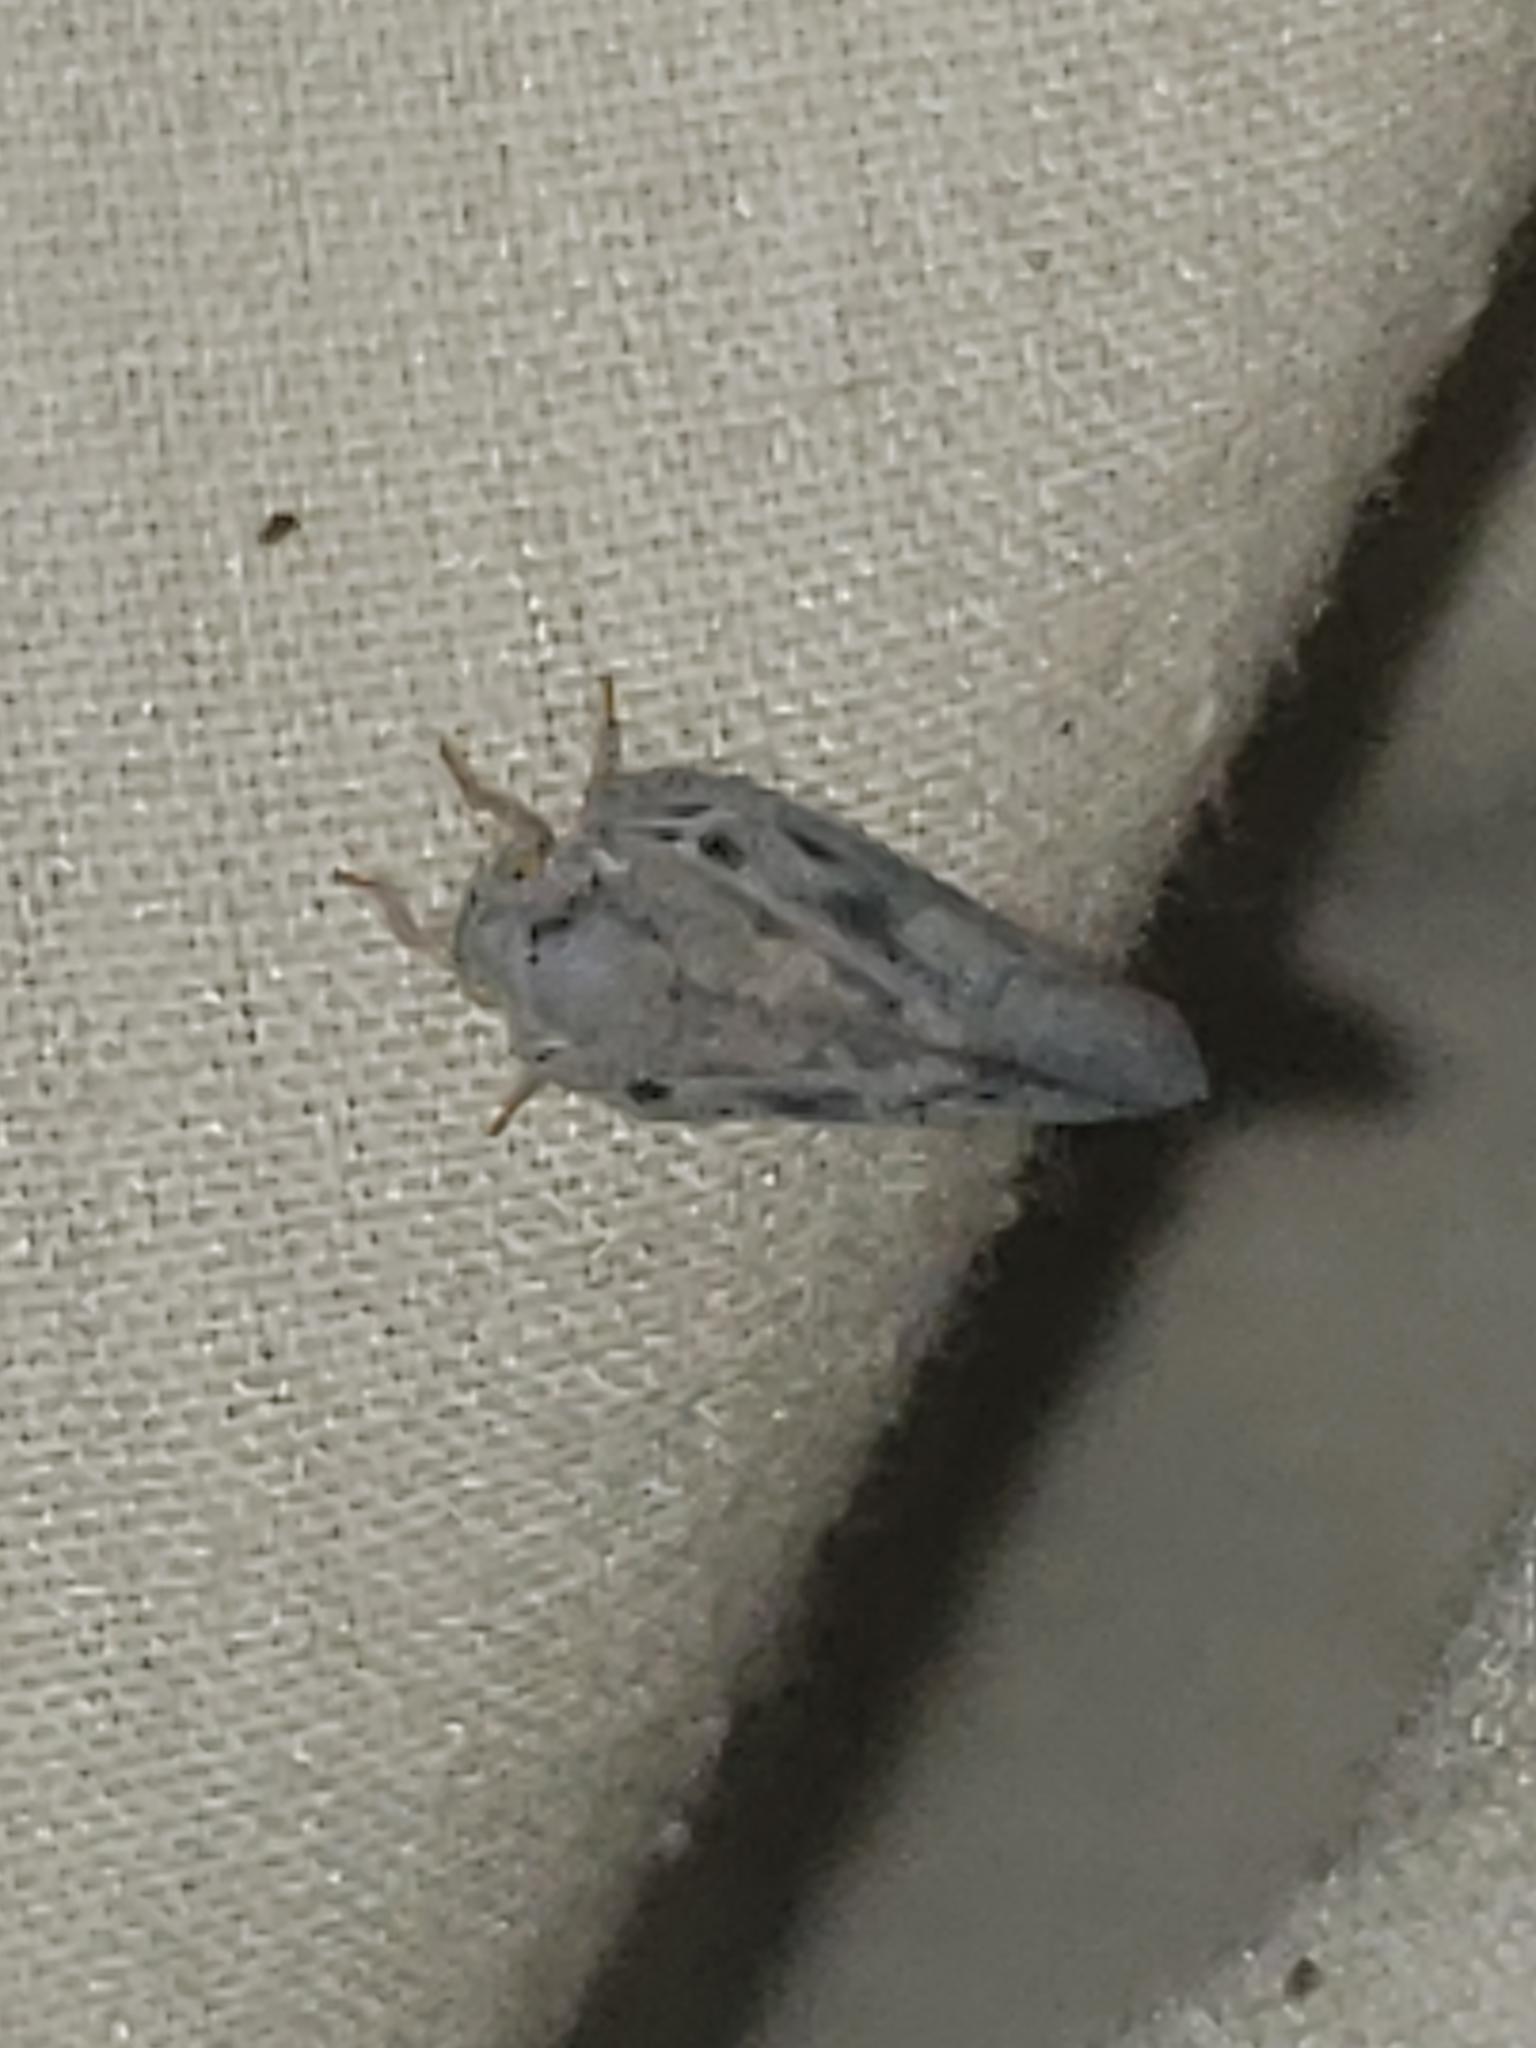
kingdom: Animalia
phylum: Arthropoda
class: Insecta
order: Hemiptera
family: Flatidae
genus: Metcalfa
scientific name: Metcalfa pruinosa
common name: Citrus flatid planthopper
